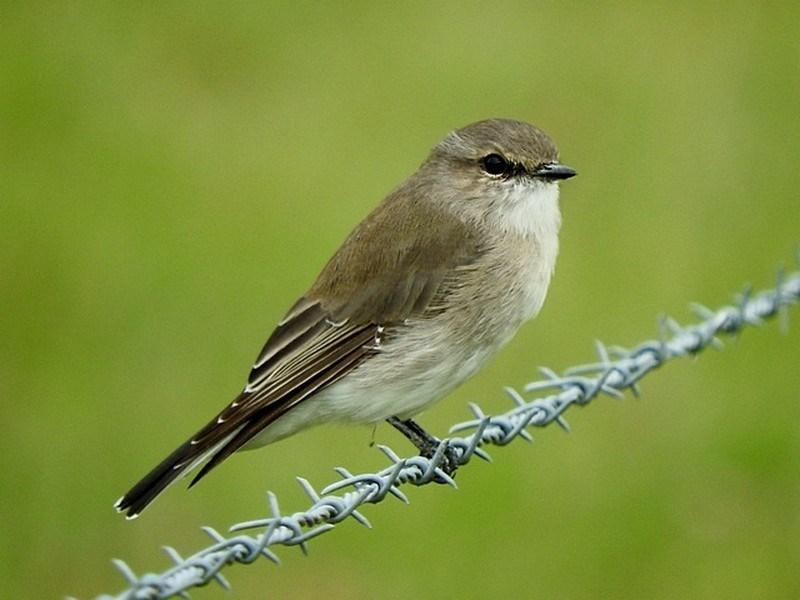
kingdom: Animalia
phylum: Chordata
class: Aves
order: Passeriformes
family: Petroicidae
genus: Microeca
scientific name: Microeca fascinans
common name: Jacky winter
